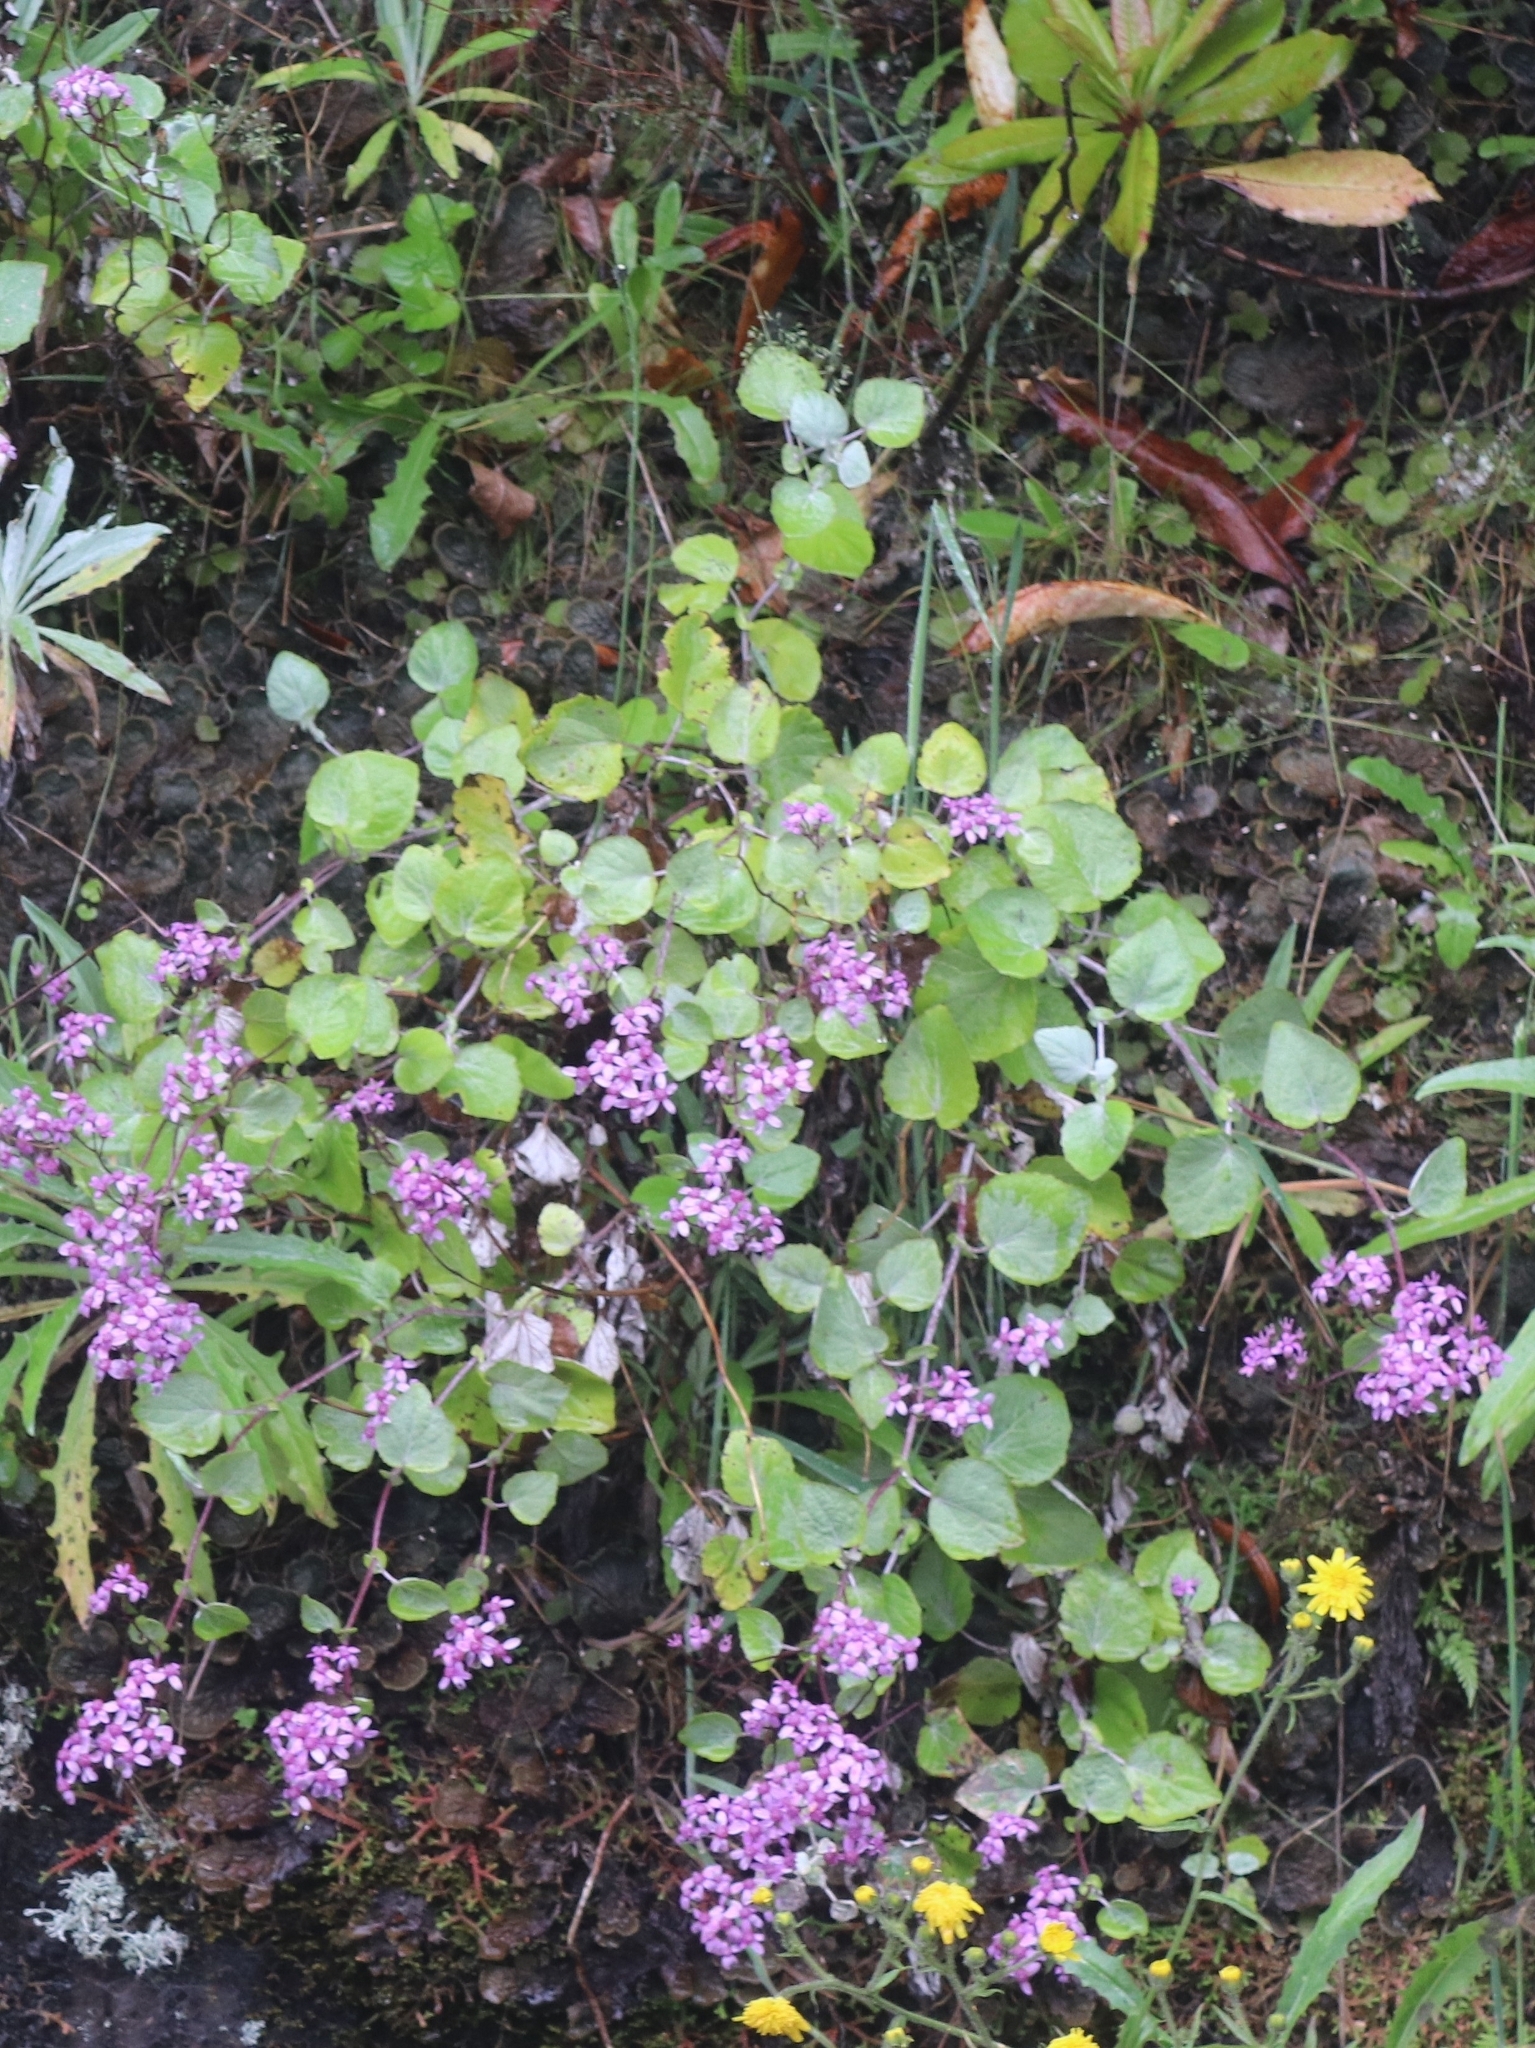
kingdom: Plantae
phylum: Tracheophyta
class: Magnoliopsida
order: Asterales
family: Asteraceae
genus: Pericallis
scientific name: Pericallis aurita
